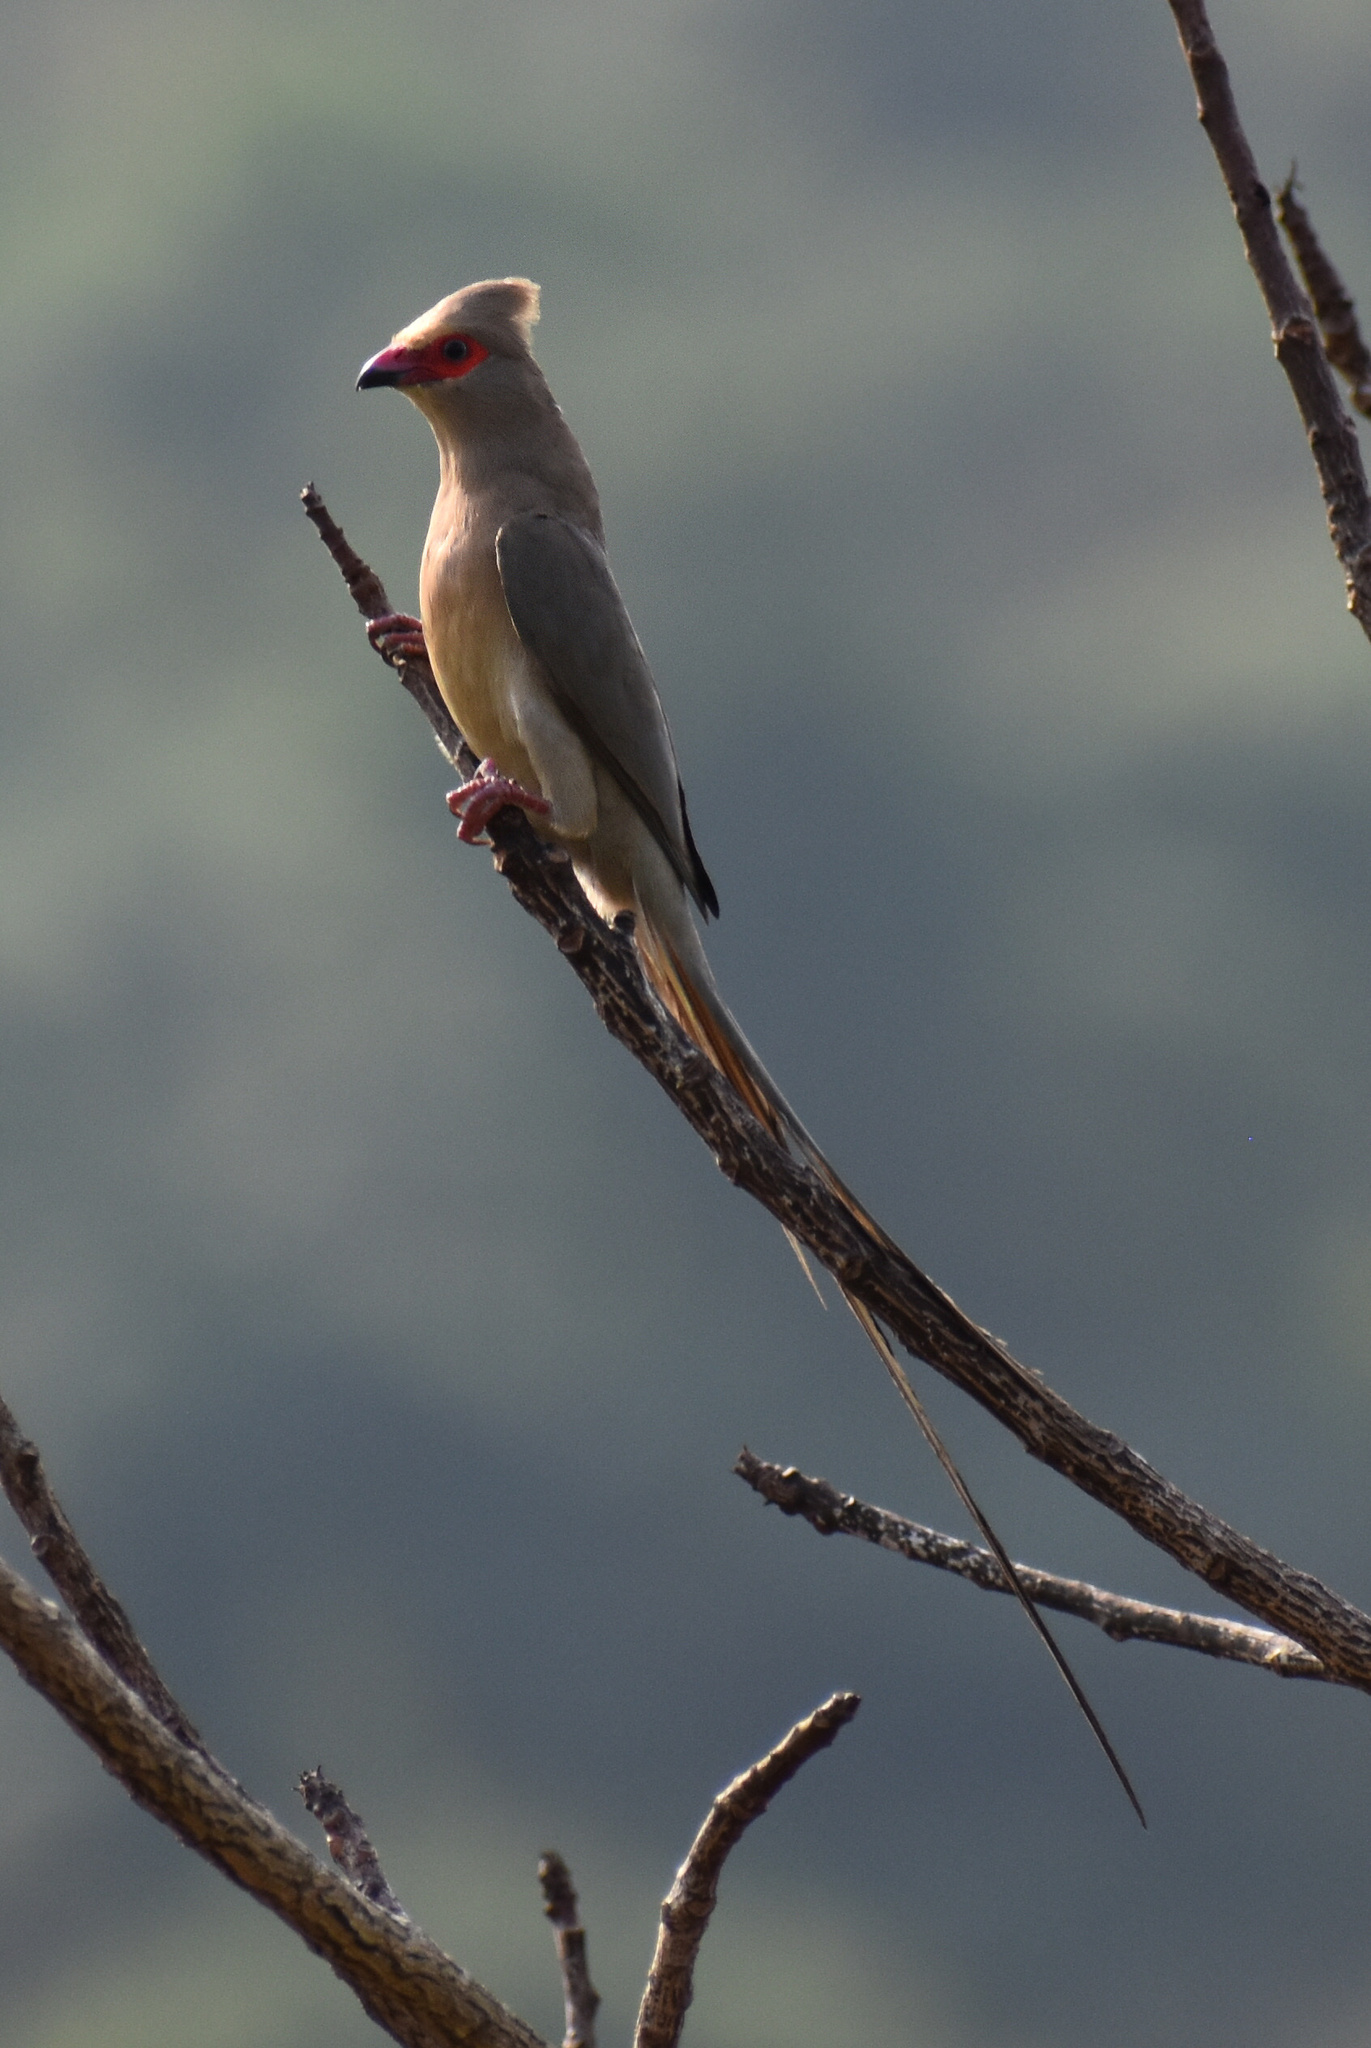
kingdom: Animalia
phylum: Chordata
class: Aves
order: Coliiformes
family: Coliidae
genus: Urocolius
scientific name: Urocolius indicus
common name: Red-faced mousebird
